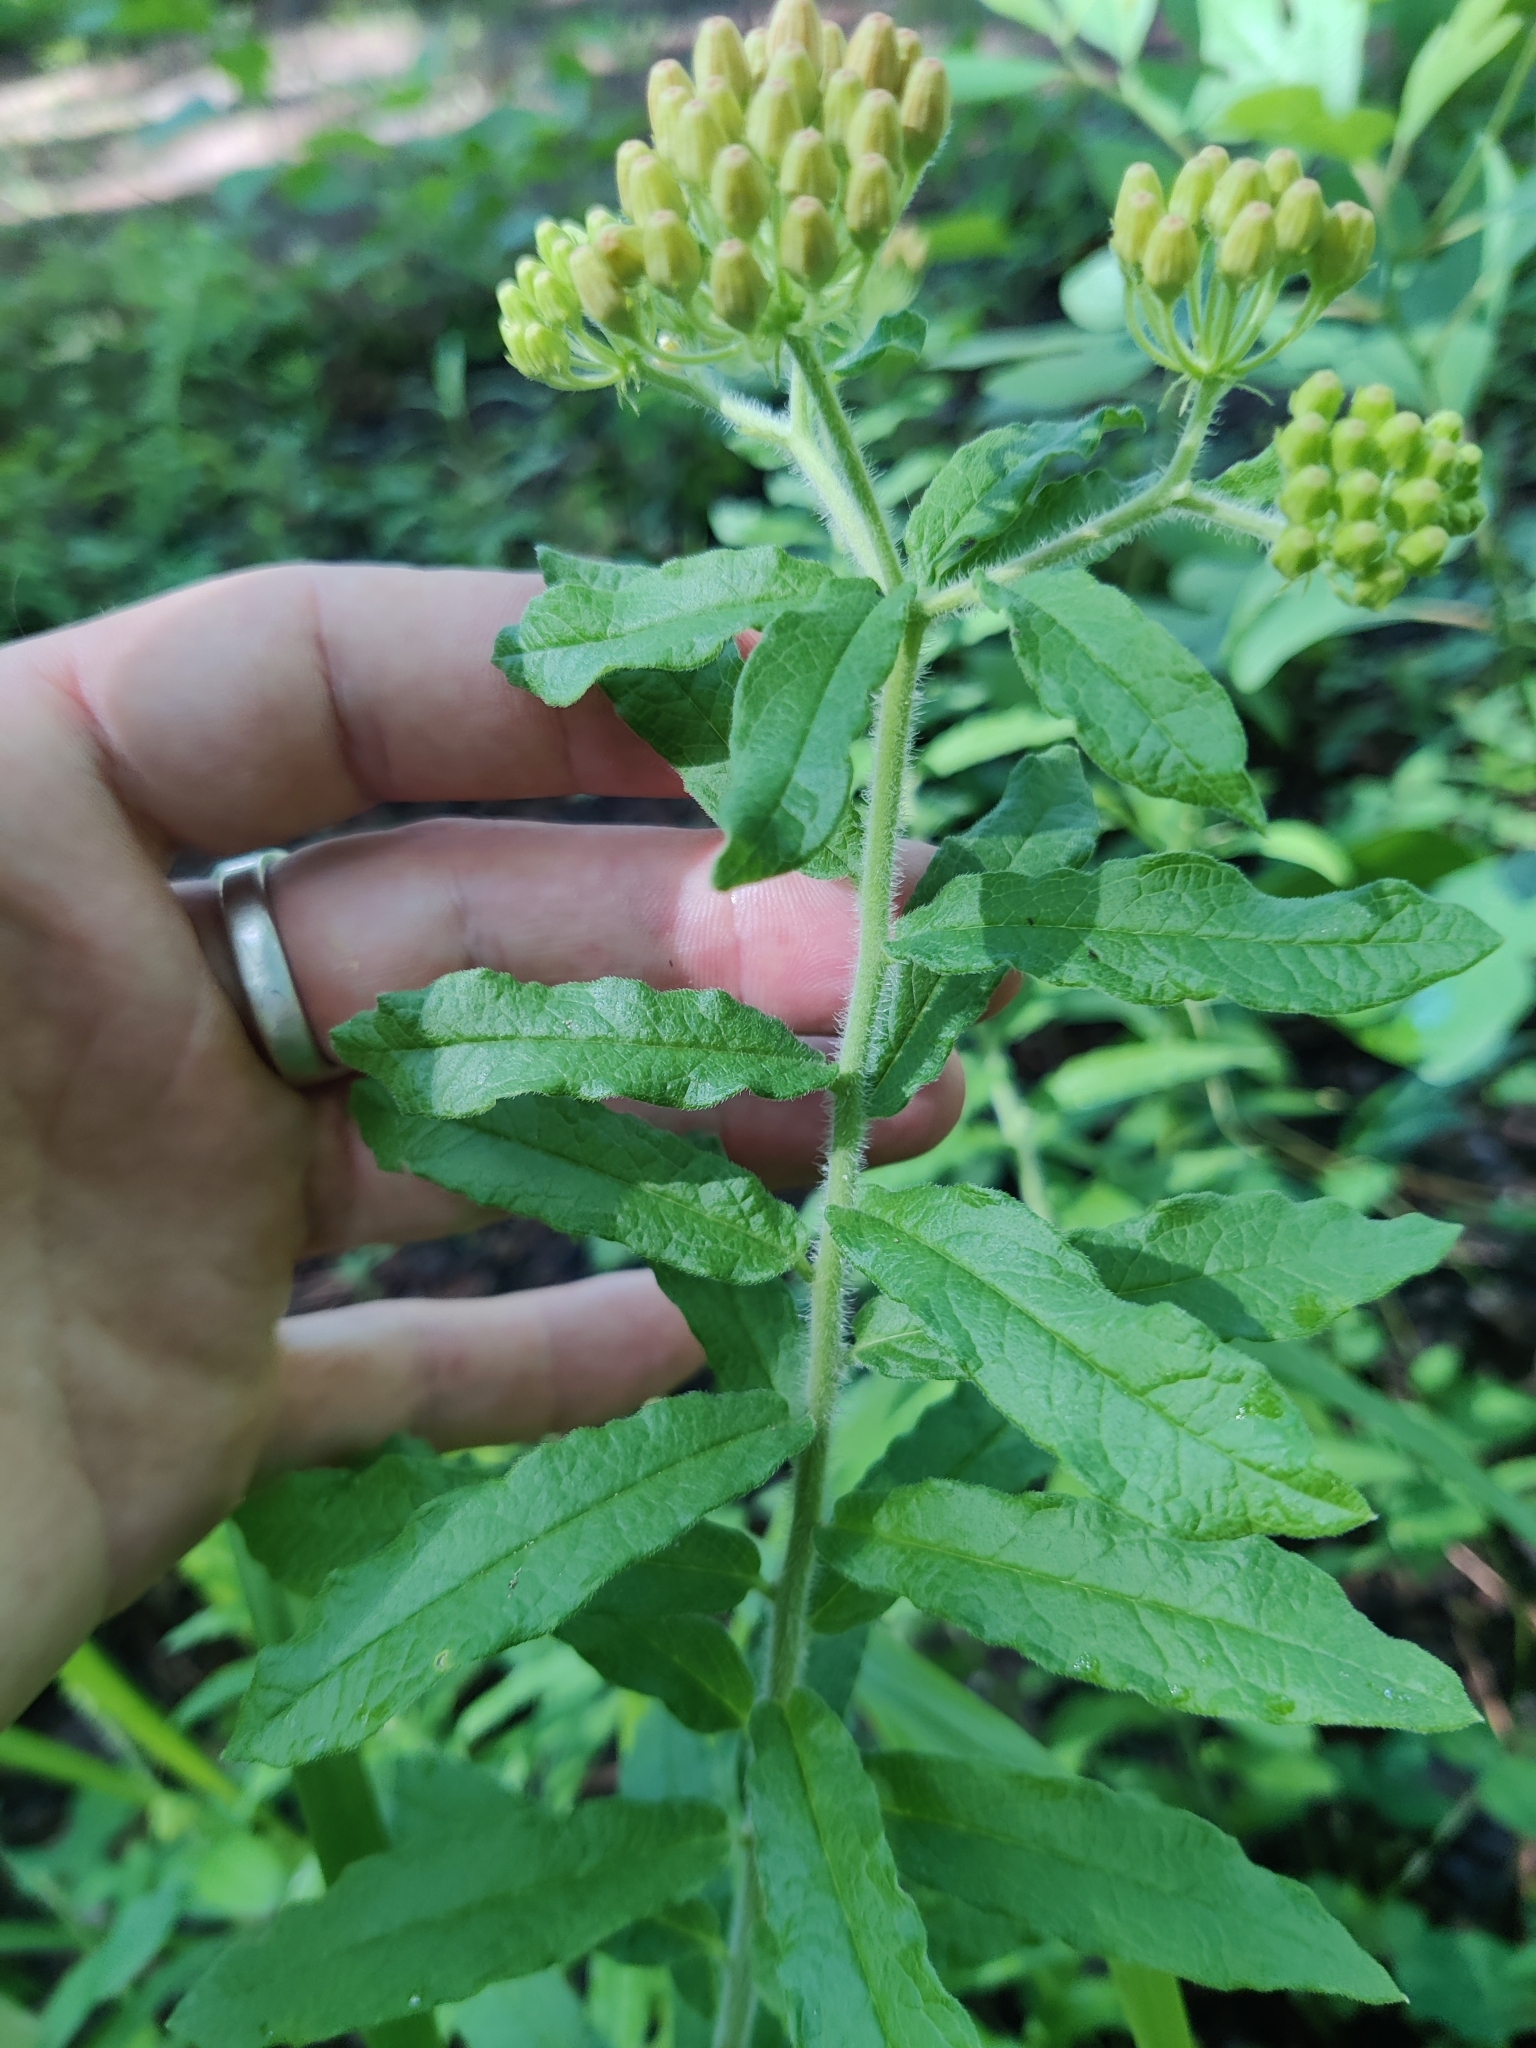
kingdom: Plantae
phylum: Tracheophyta
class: Magnoliopsida
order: Gentianales
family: Apocynaceae
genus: Asclepias
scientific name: Asclepias tuberosa
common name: Butterfly milkweed
